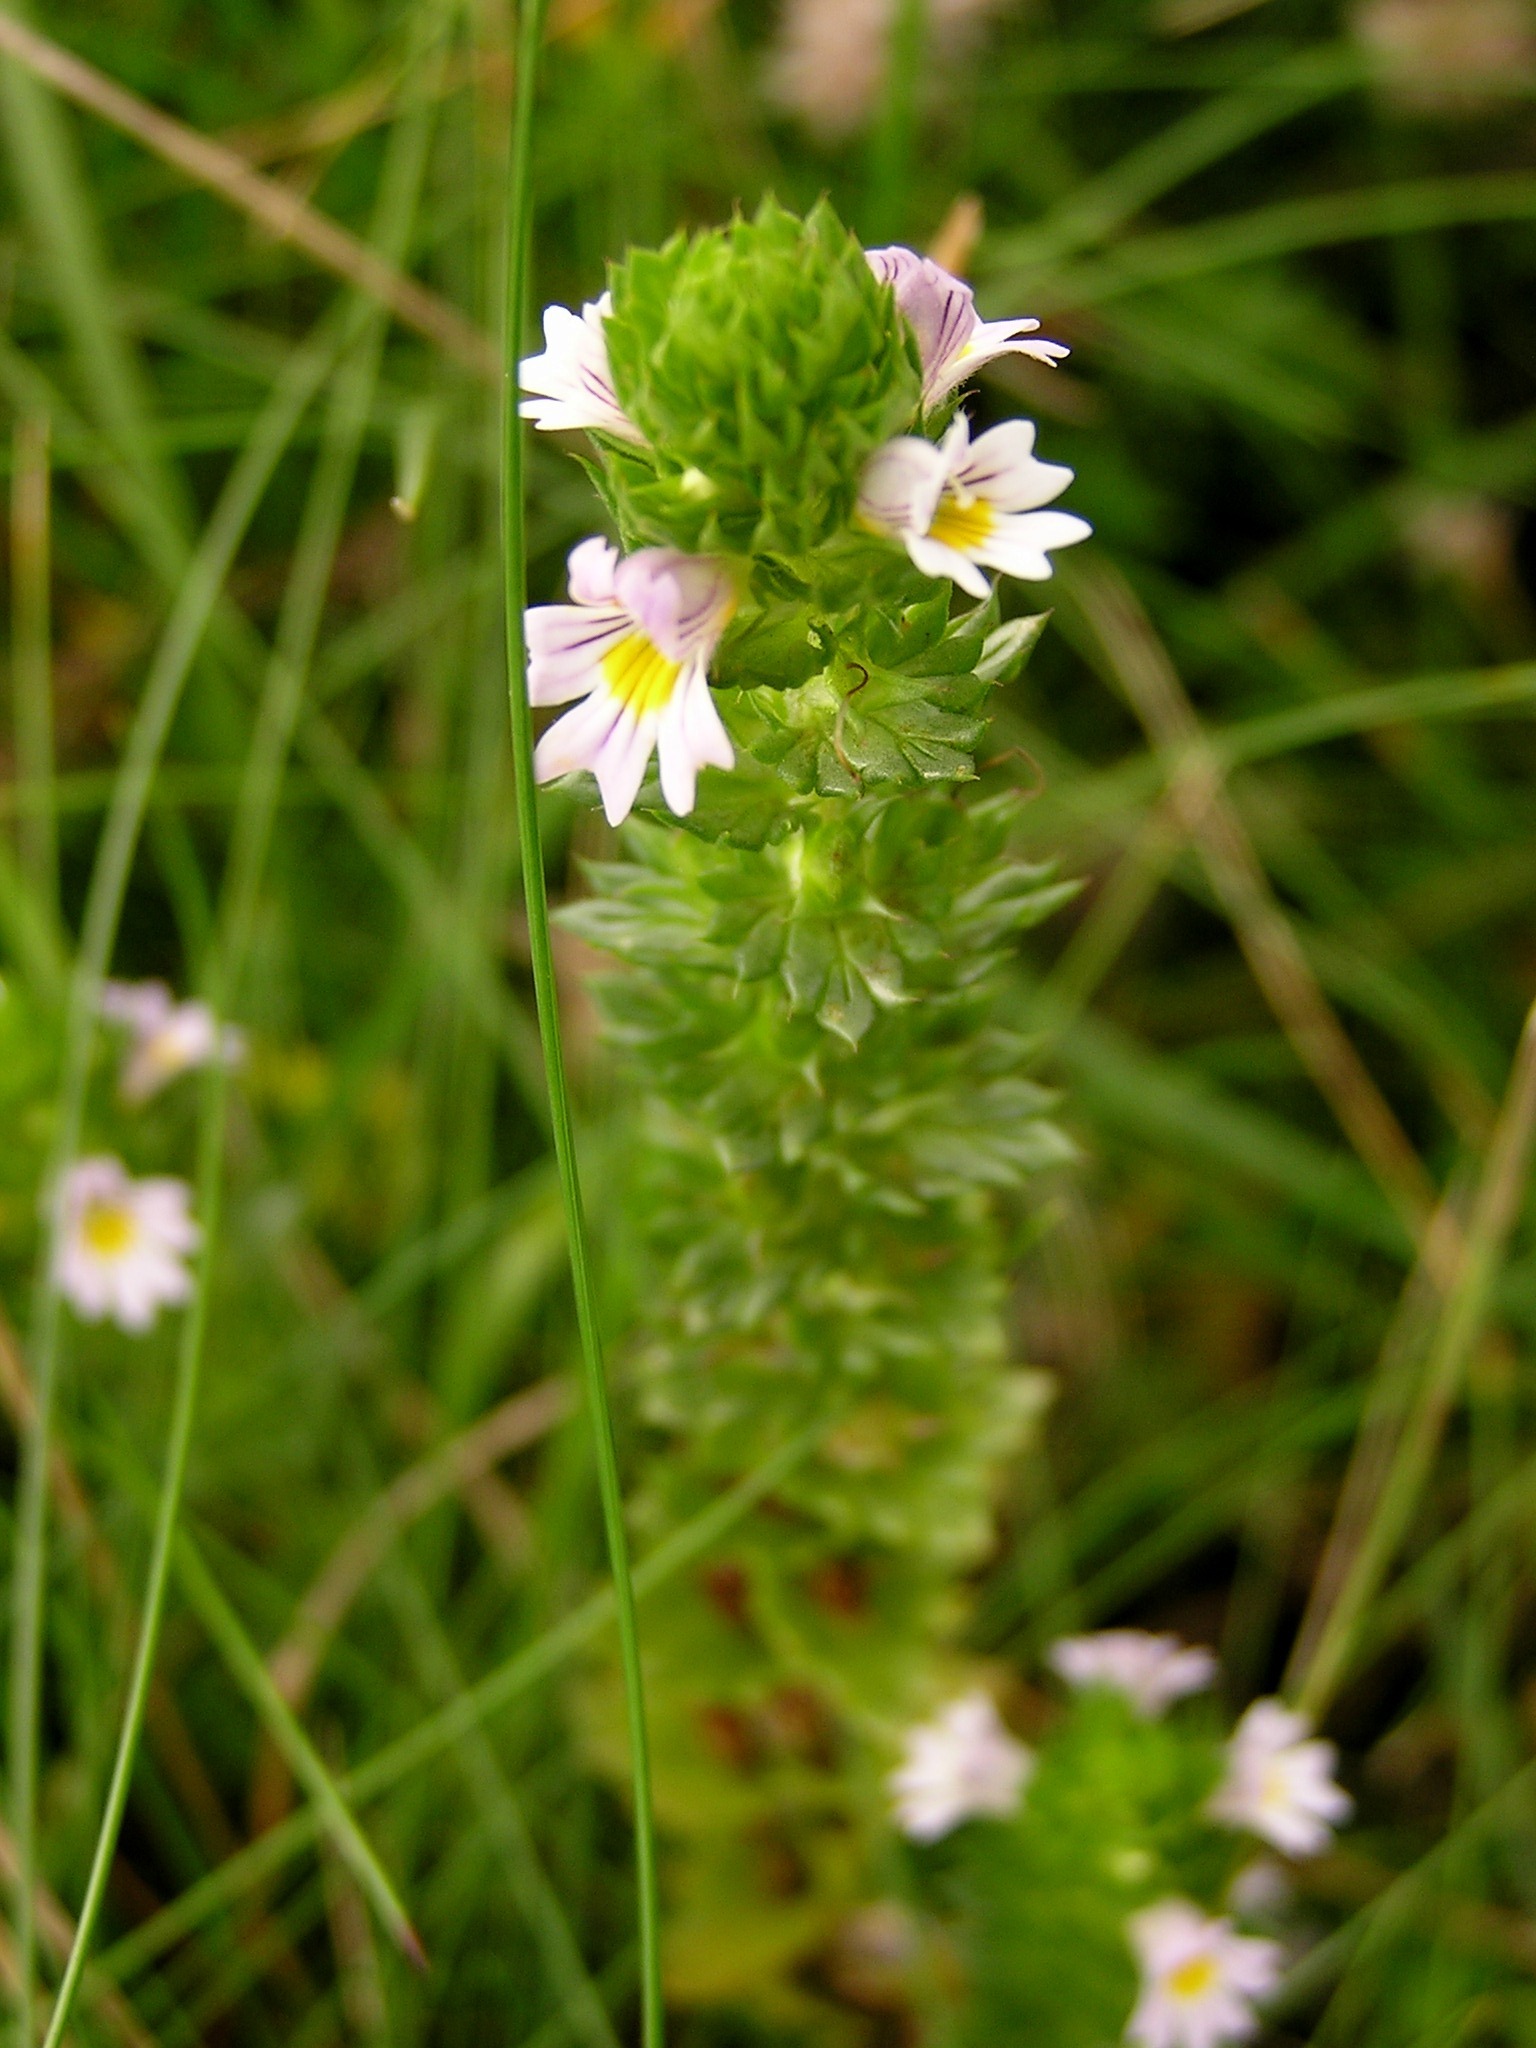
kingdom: Plantae
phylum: Tracheophyta
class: Magnoliopsida
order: Lamiales
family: Orobanchaceae
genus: Euphrasia
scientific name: Euphrasia officinalis
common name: Eyebright
